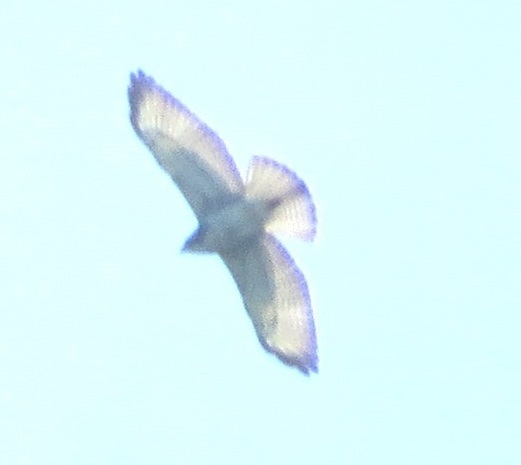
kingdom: Animalia
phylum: Chordata
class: Aves
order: Accipitriformes
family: Accipitridae
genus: Buteo
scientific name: Buteo brachyurus
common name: Short-tailed hawk
